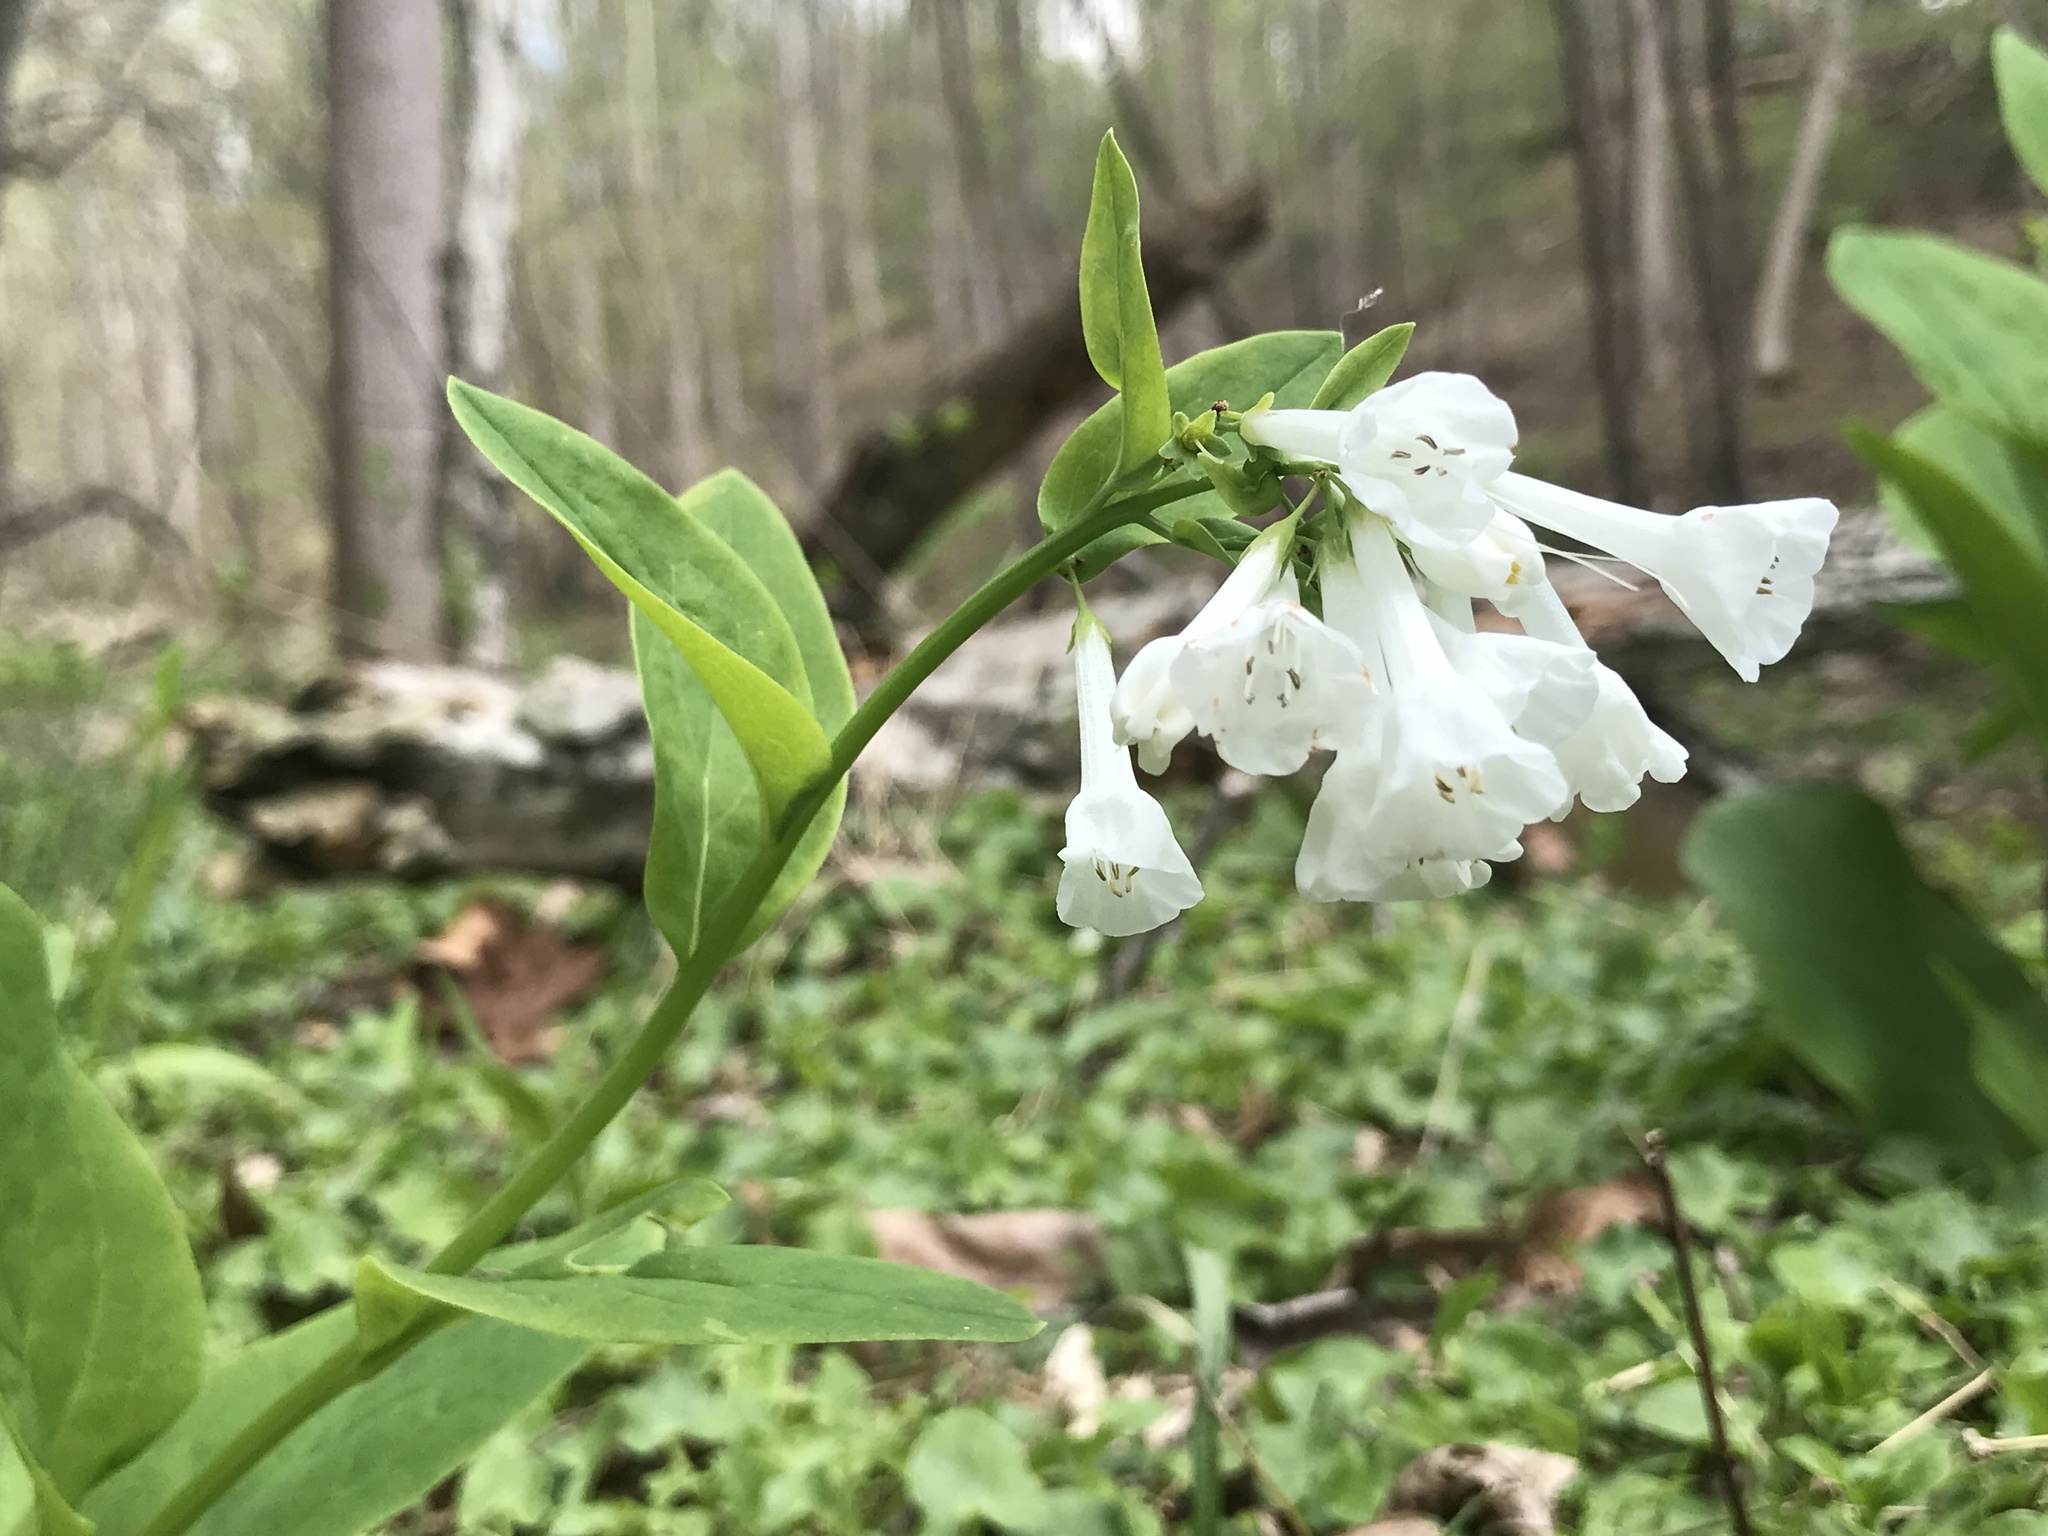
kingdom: Plantae
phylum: Tracheophyta
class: Magnoliopsida
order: Boraginales
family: Boraginaceae
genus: Mertensia
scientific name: Mertensia virginica
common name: Virginia bluebells
